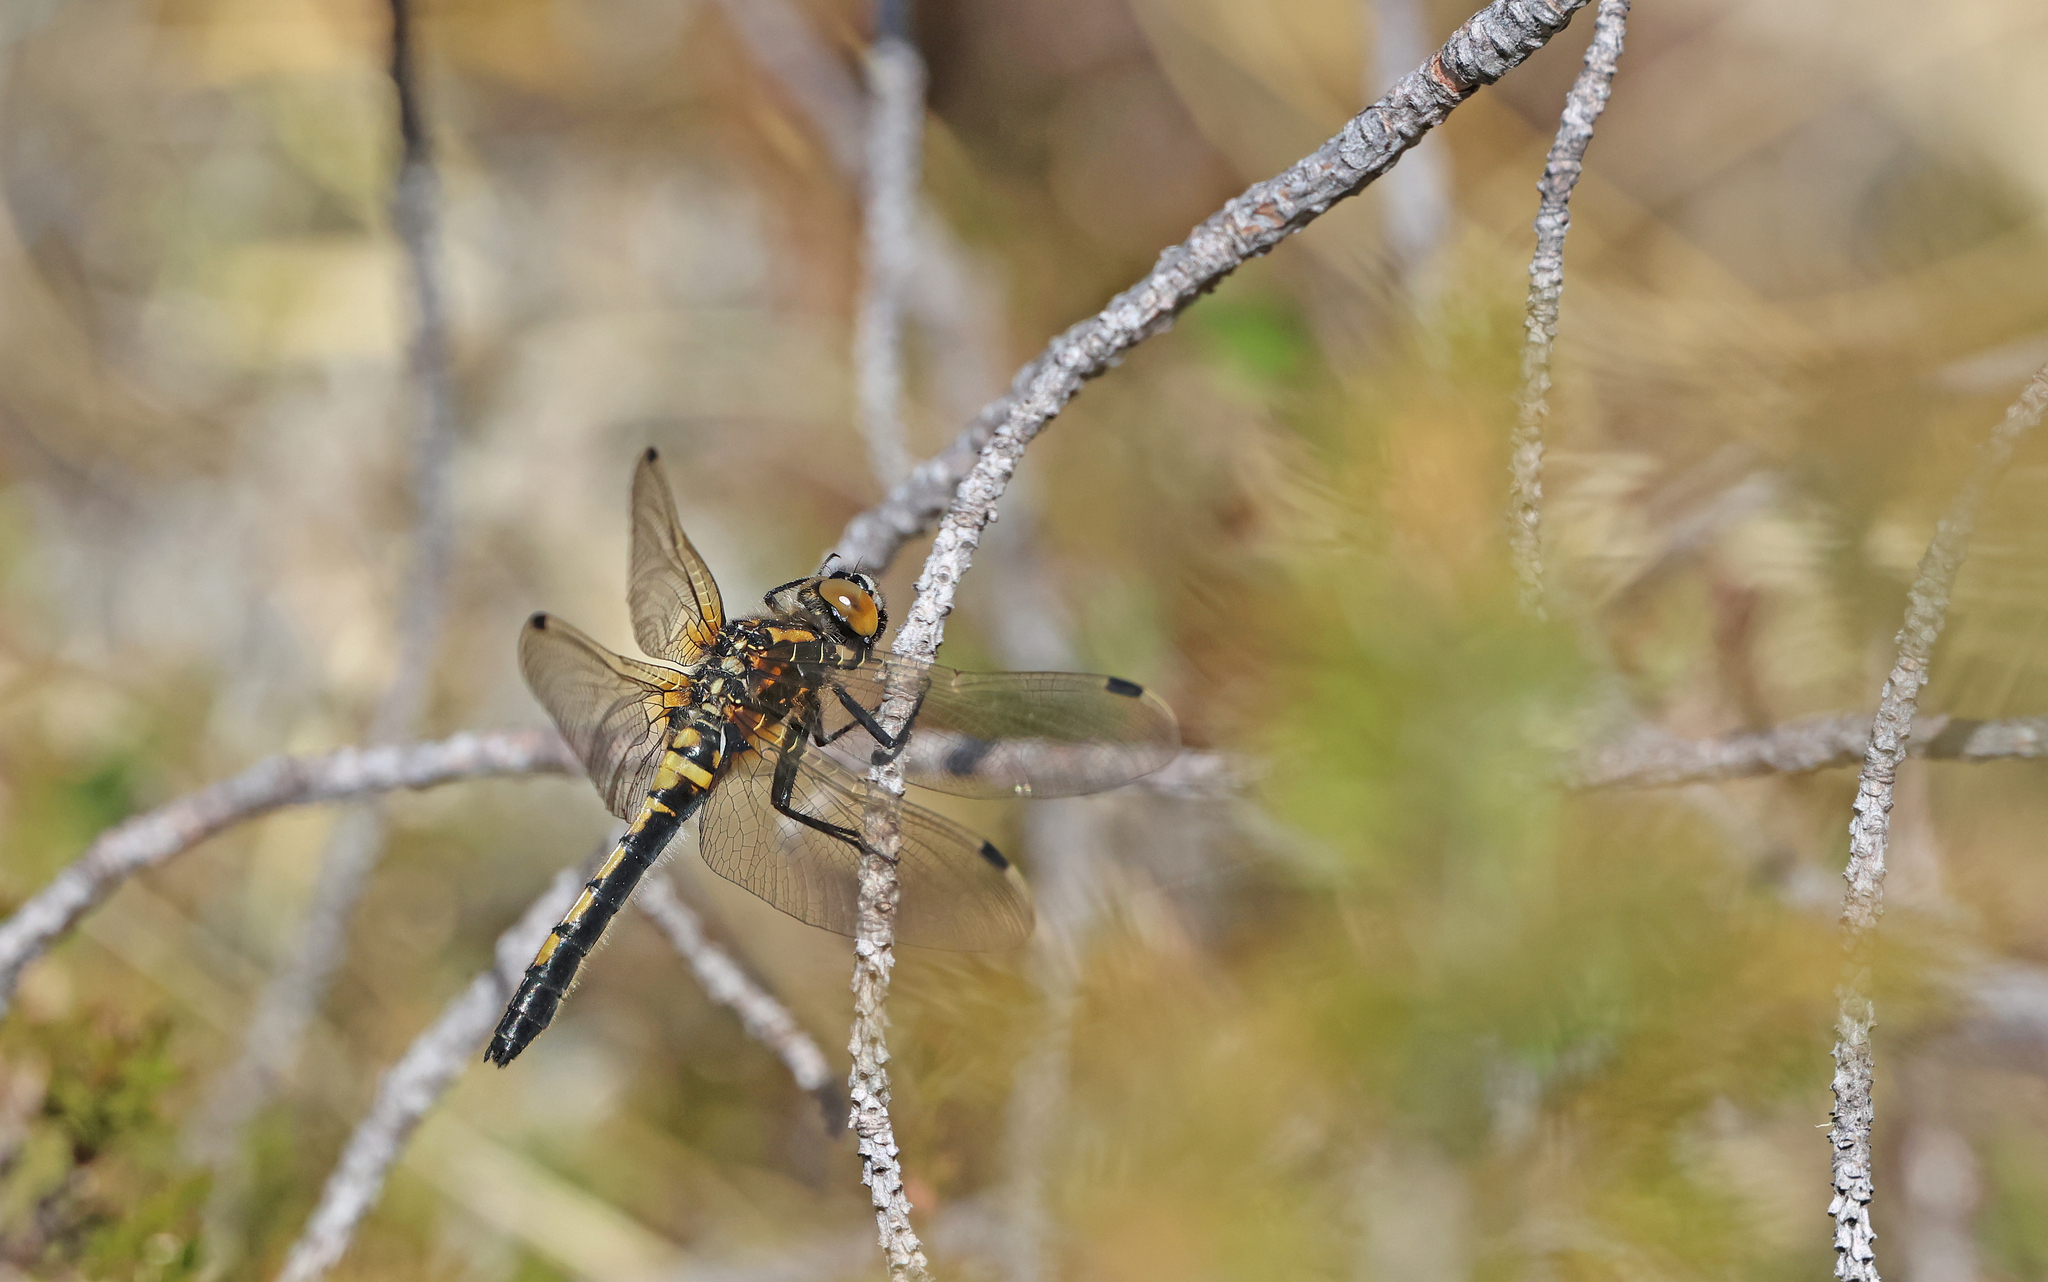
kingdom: Animalia
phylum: Arthropoda
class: Insecta
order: Odonata
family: Libellulidae
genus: Leucorrhinia
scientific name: Leucorrhinia rubicunda
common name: Ruby whiteface
